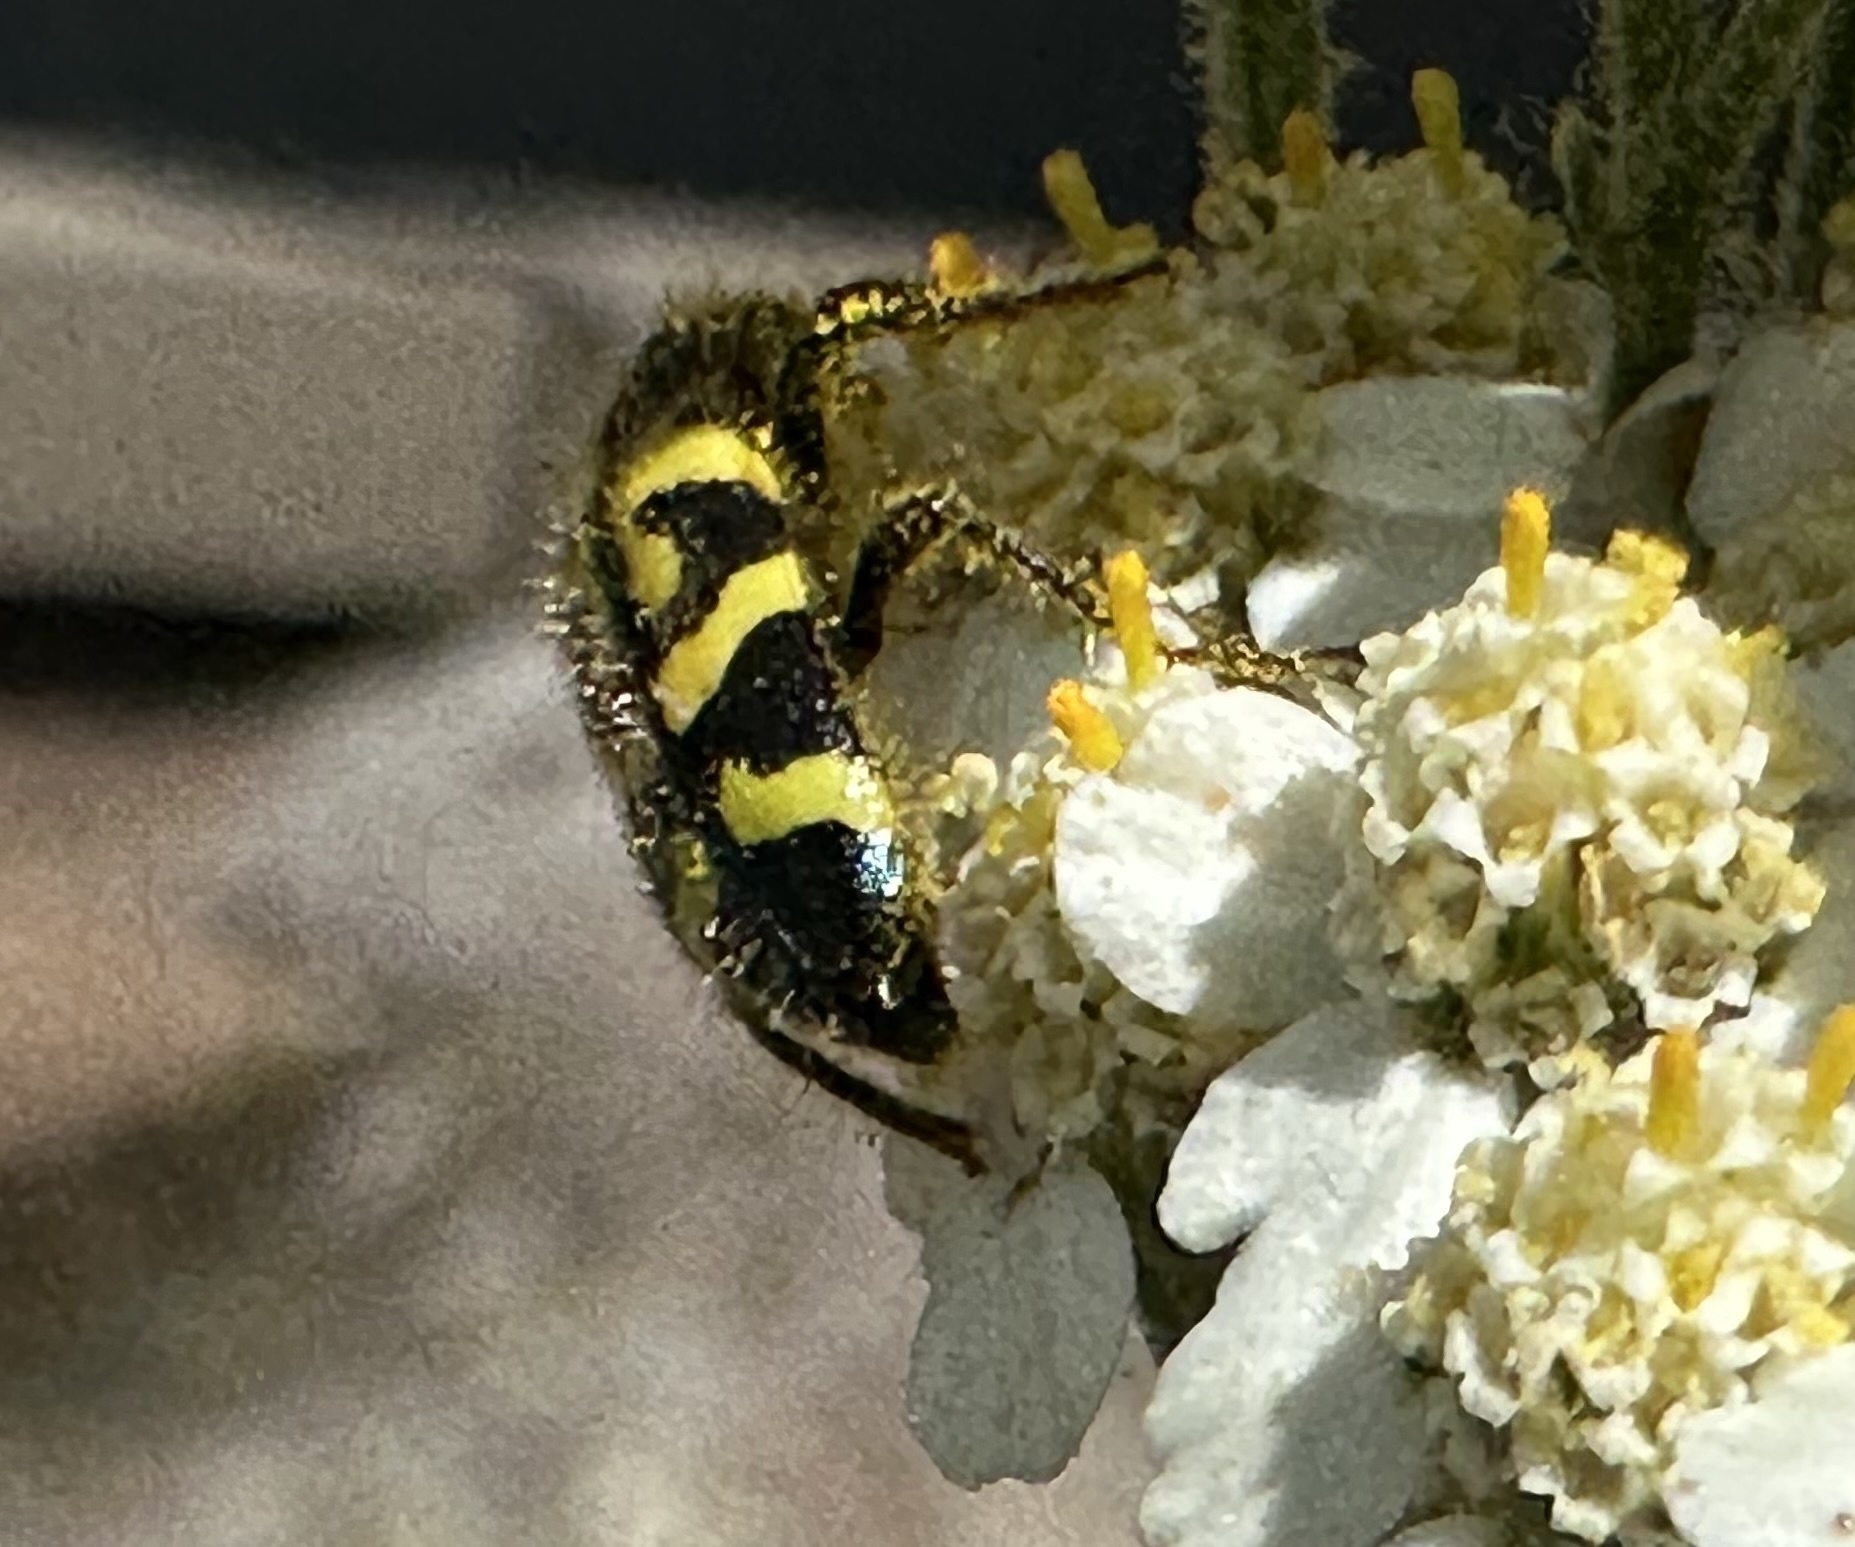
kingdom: Animalia
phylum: Arthropoda
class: Insecta
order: Coleoptera
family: Cleridae
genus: Trichodes
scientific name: Trichodes ornatus
